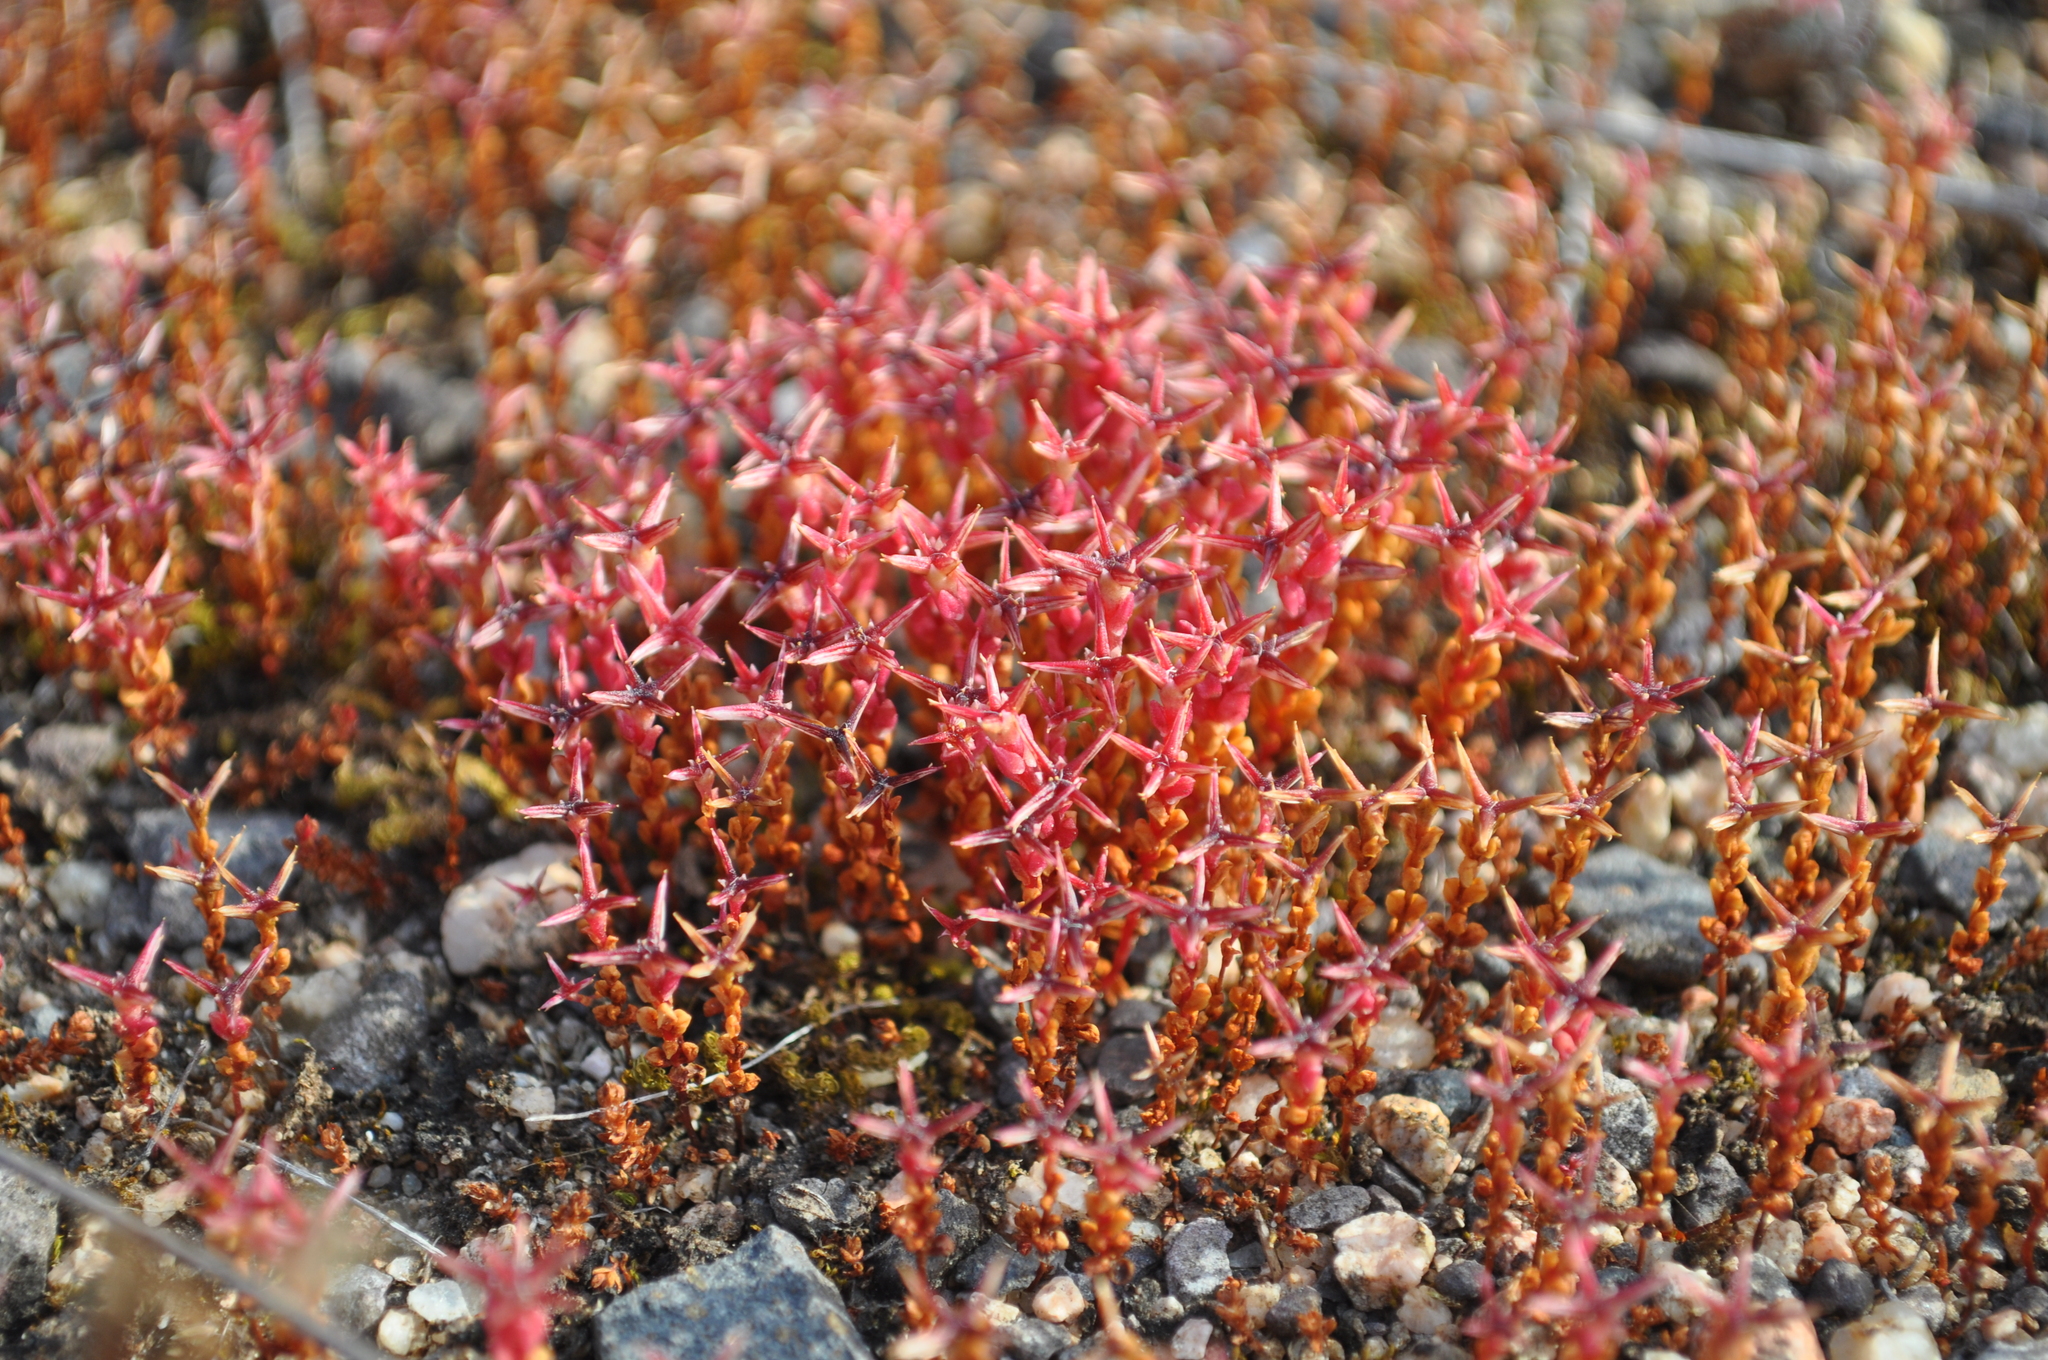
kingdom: Plantae
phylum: Tracheophyta
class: Magnoliopsida
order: Saxifragales
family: Crassulaceae
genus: Sedum
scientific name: Sedum cespitosum
